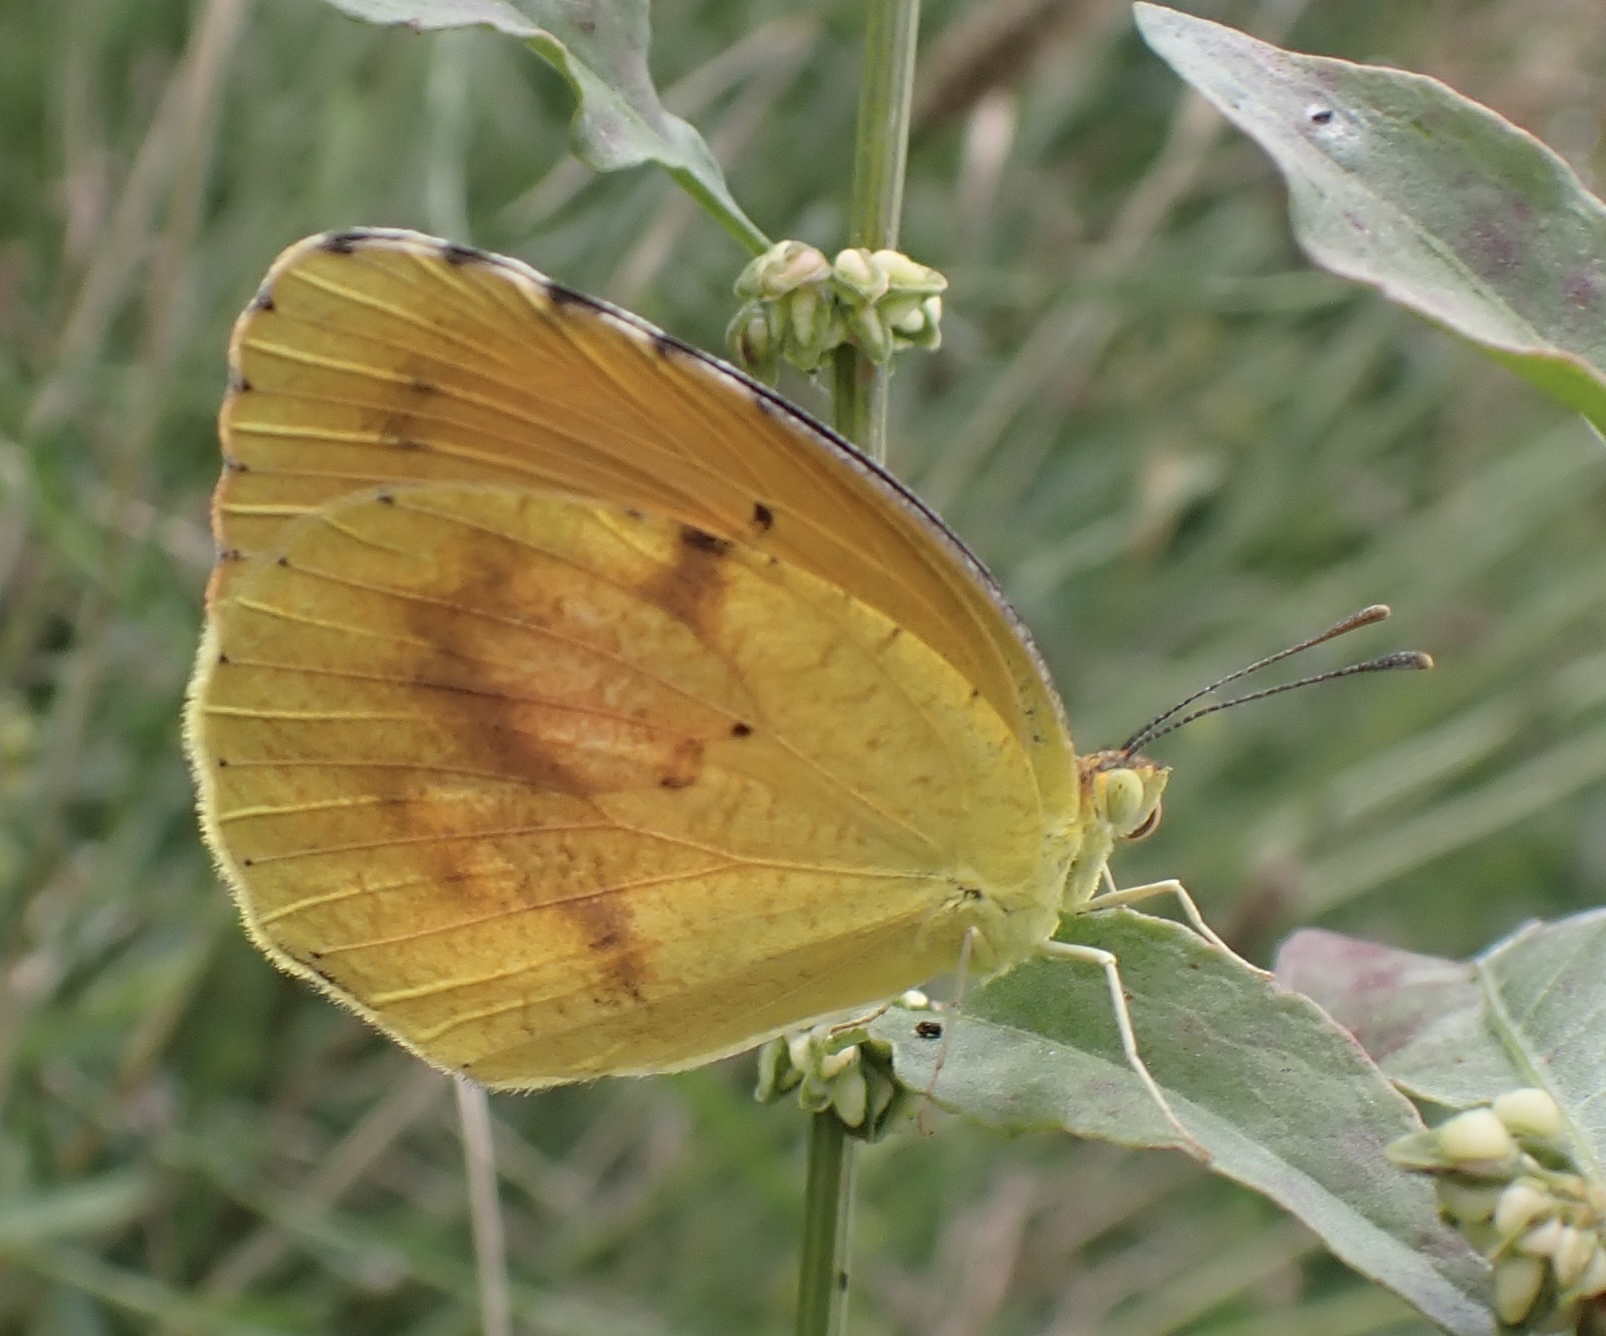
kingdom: Animalia
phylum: Arthropoda
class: Insecta
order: Lepidoptera
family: Pieridae
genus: Abaeis
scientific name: Abaeis nicippe
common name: Sleepy orange
